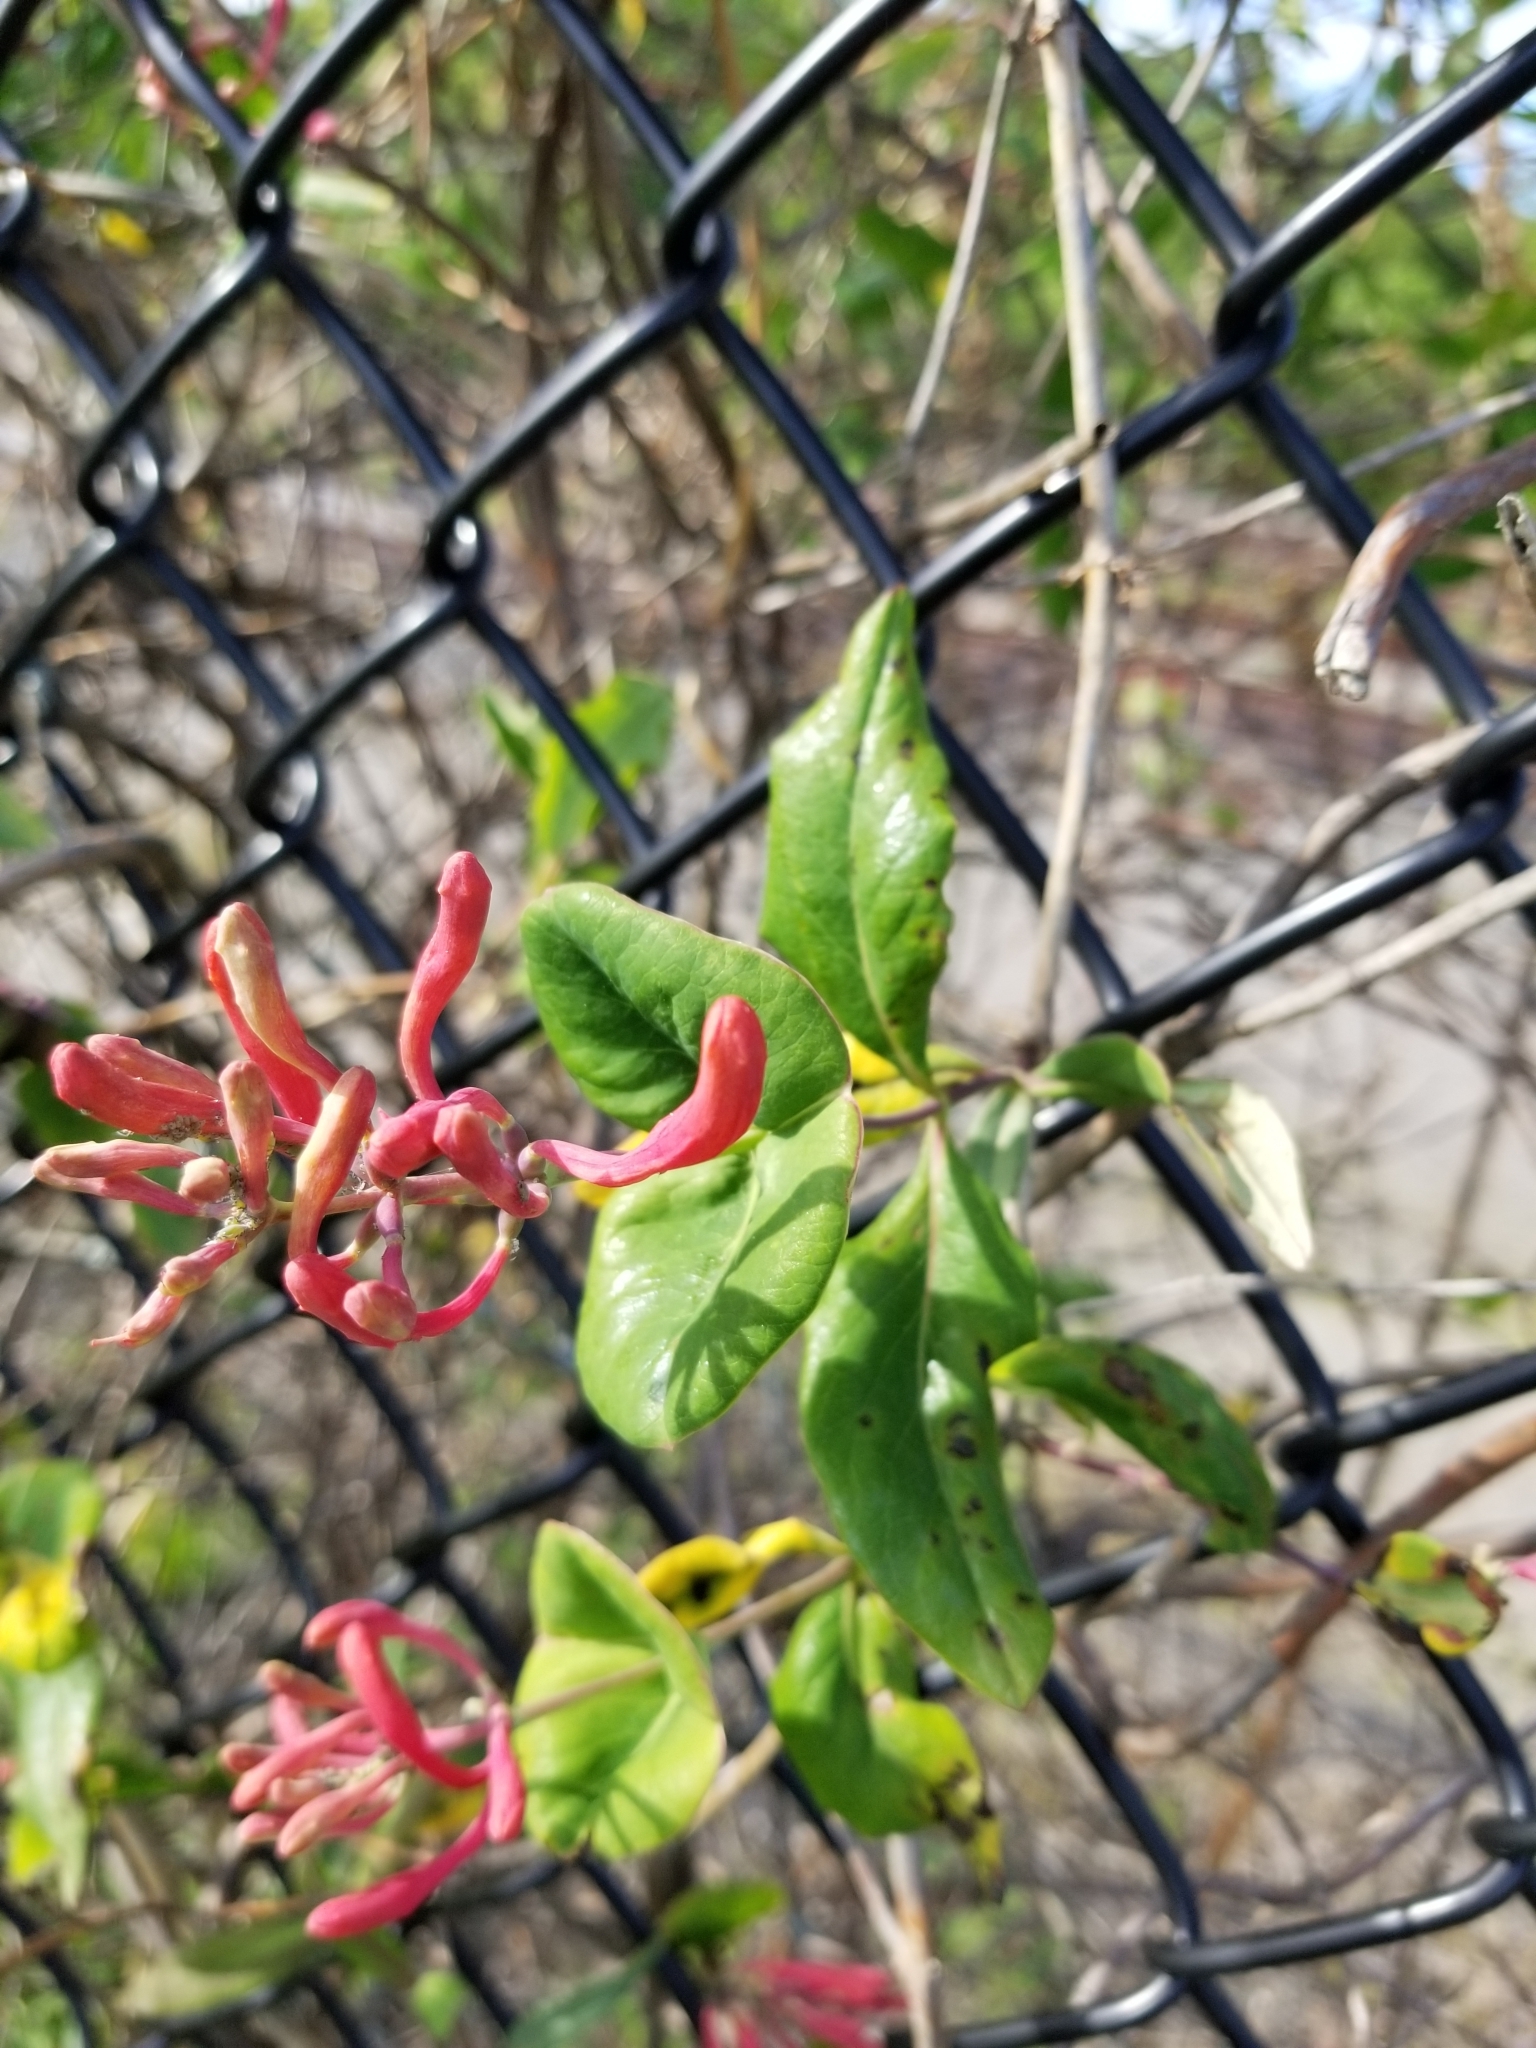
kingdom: Plantae
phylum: Tracheophyta
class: Magnoliopsida
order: Dipsacales
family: Caprifoliaceae
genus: Lonicera
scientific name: Lonicera sempervirens
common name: Coral honeysuckle
